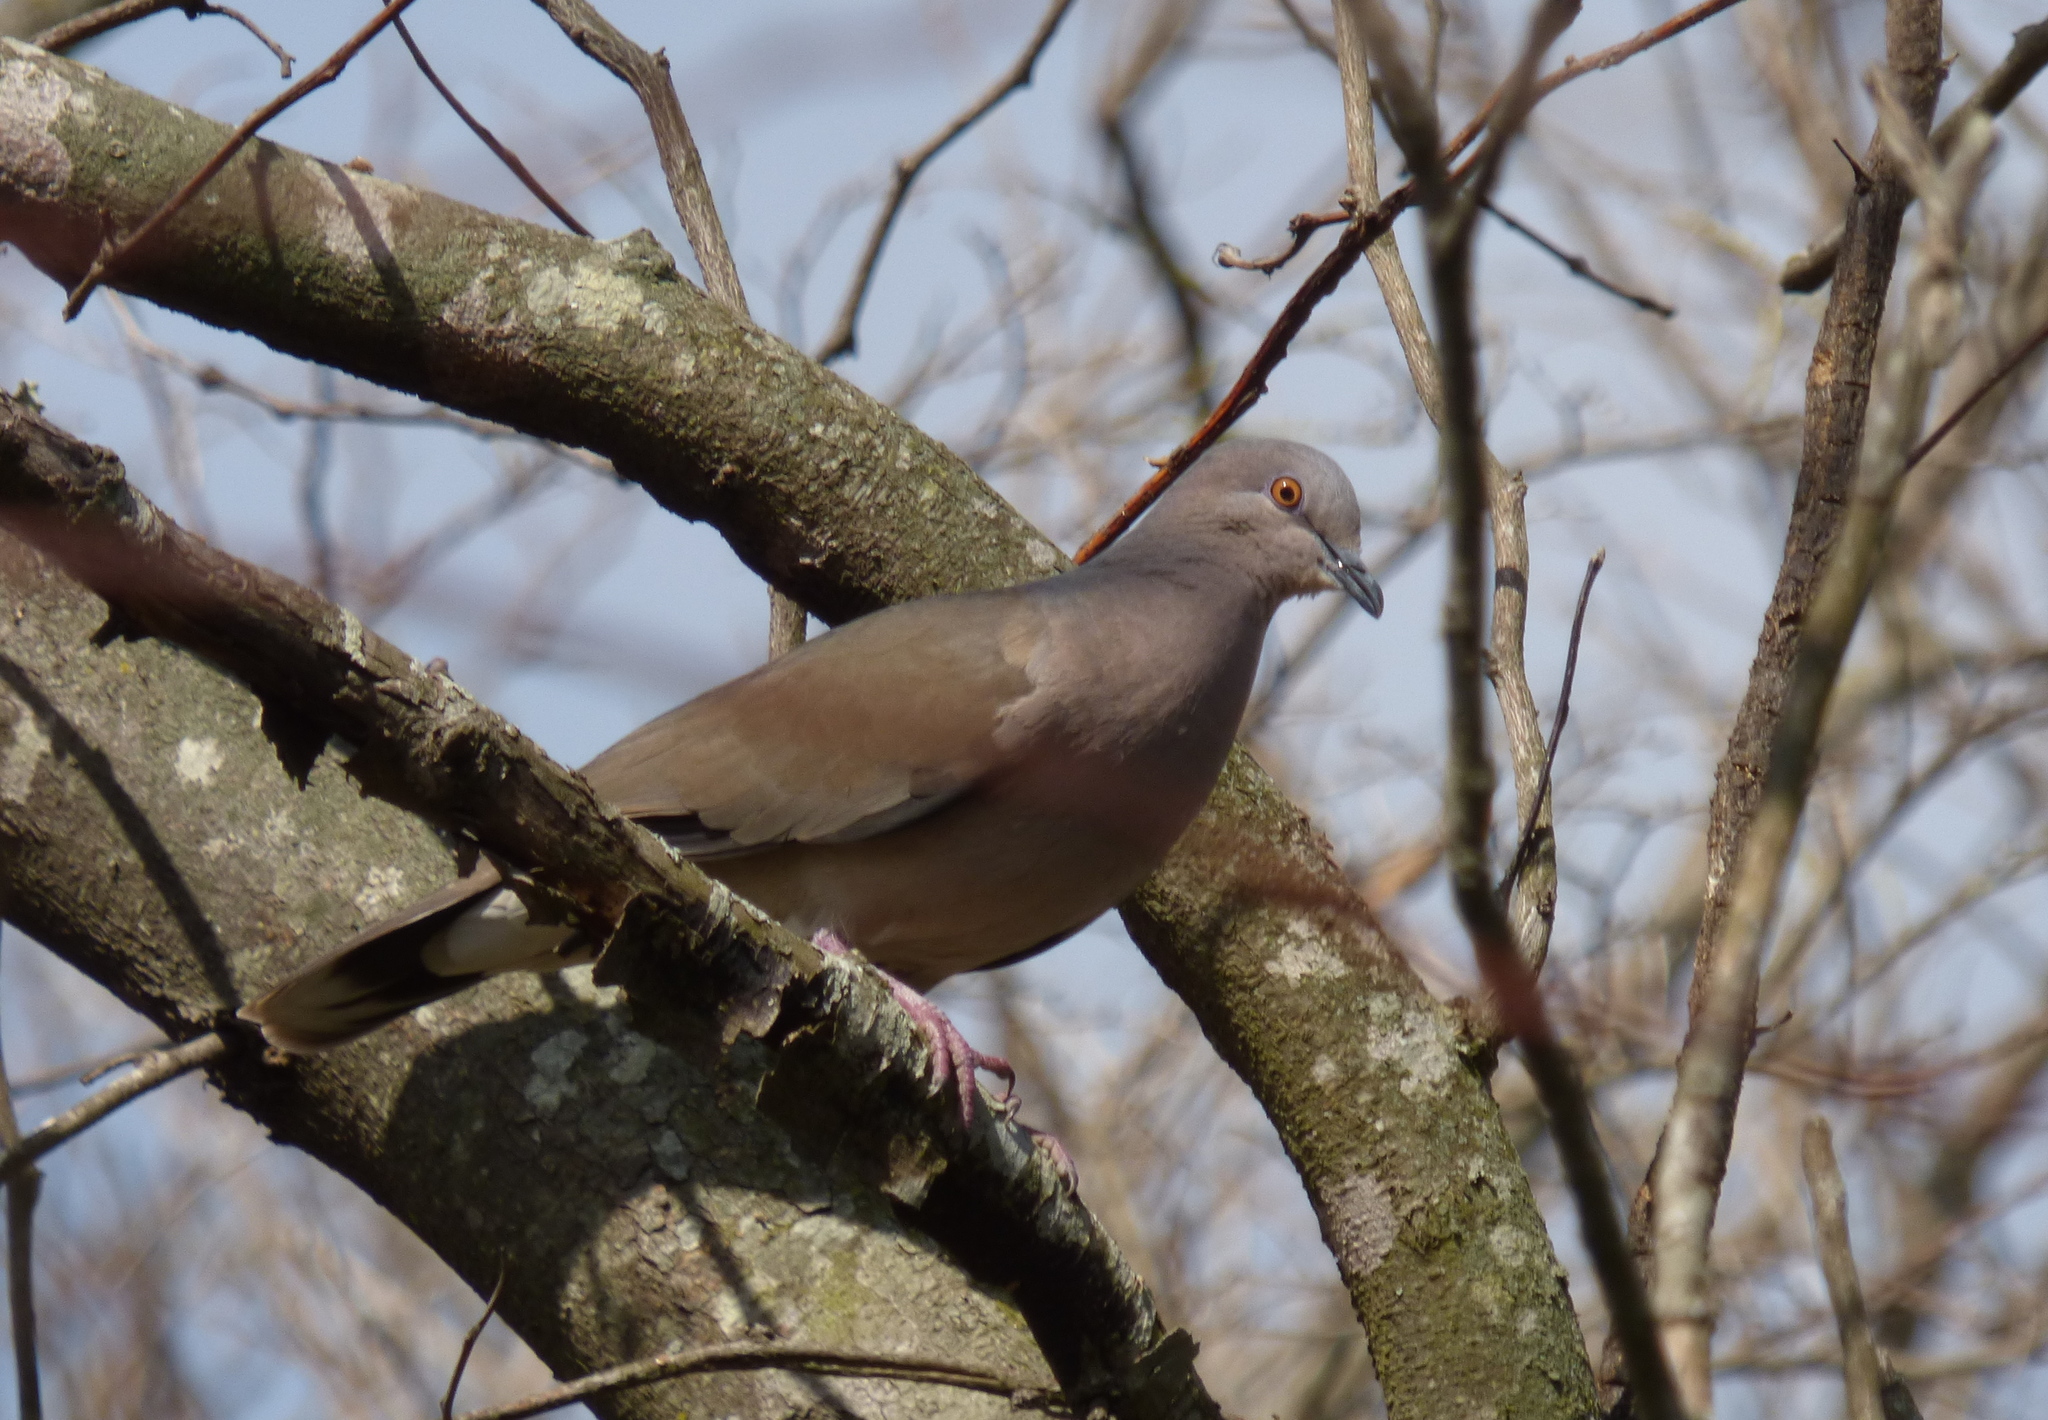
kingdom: Animalia
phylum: Chordata
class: Aves
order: Columbiformes
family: Columbidae
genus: Leptotila
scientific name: Leptotila verreauxi
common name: White-tipped dove
